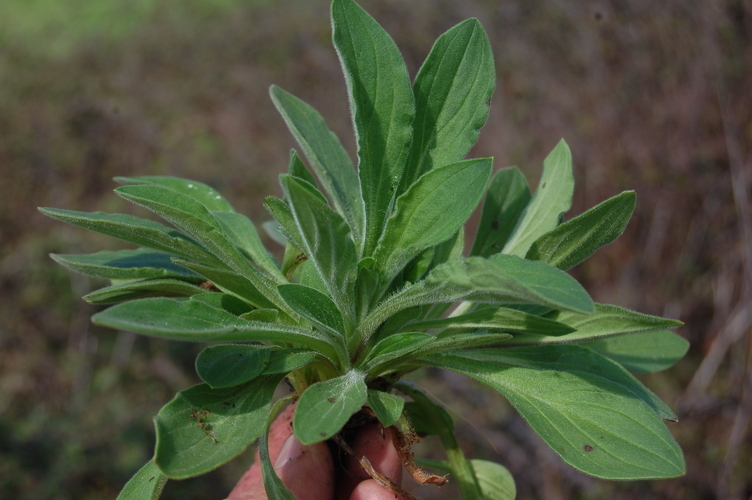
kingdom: Plantae
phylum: Tracheophyta
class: Magnoliopsida
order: Caryophyllales
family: Caryophyllaceae
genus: Silene
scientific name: Silene latifolia
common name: White campion
